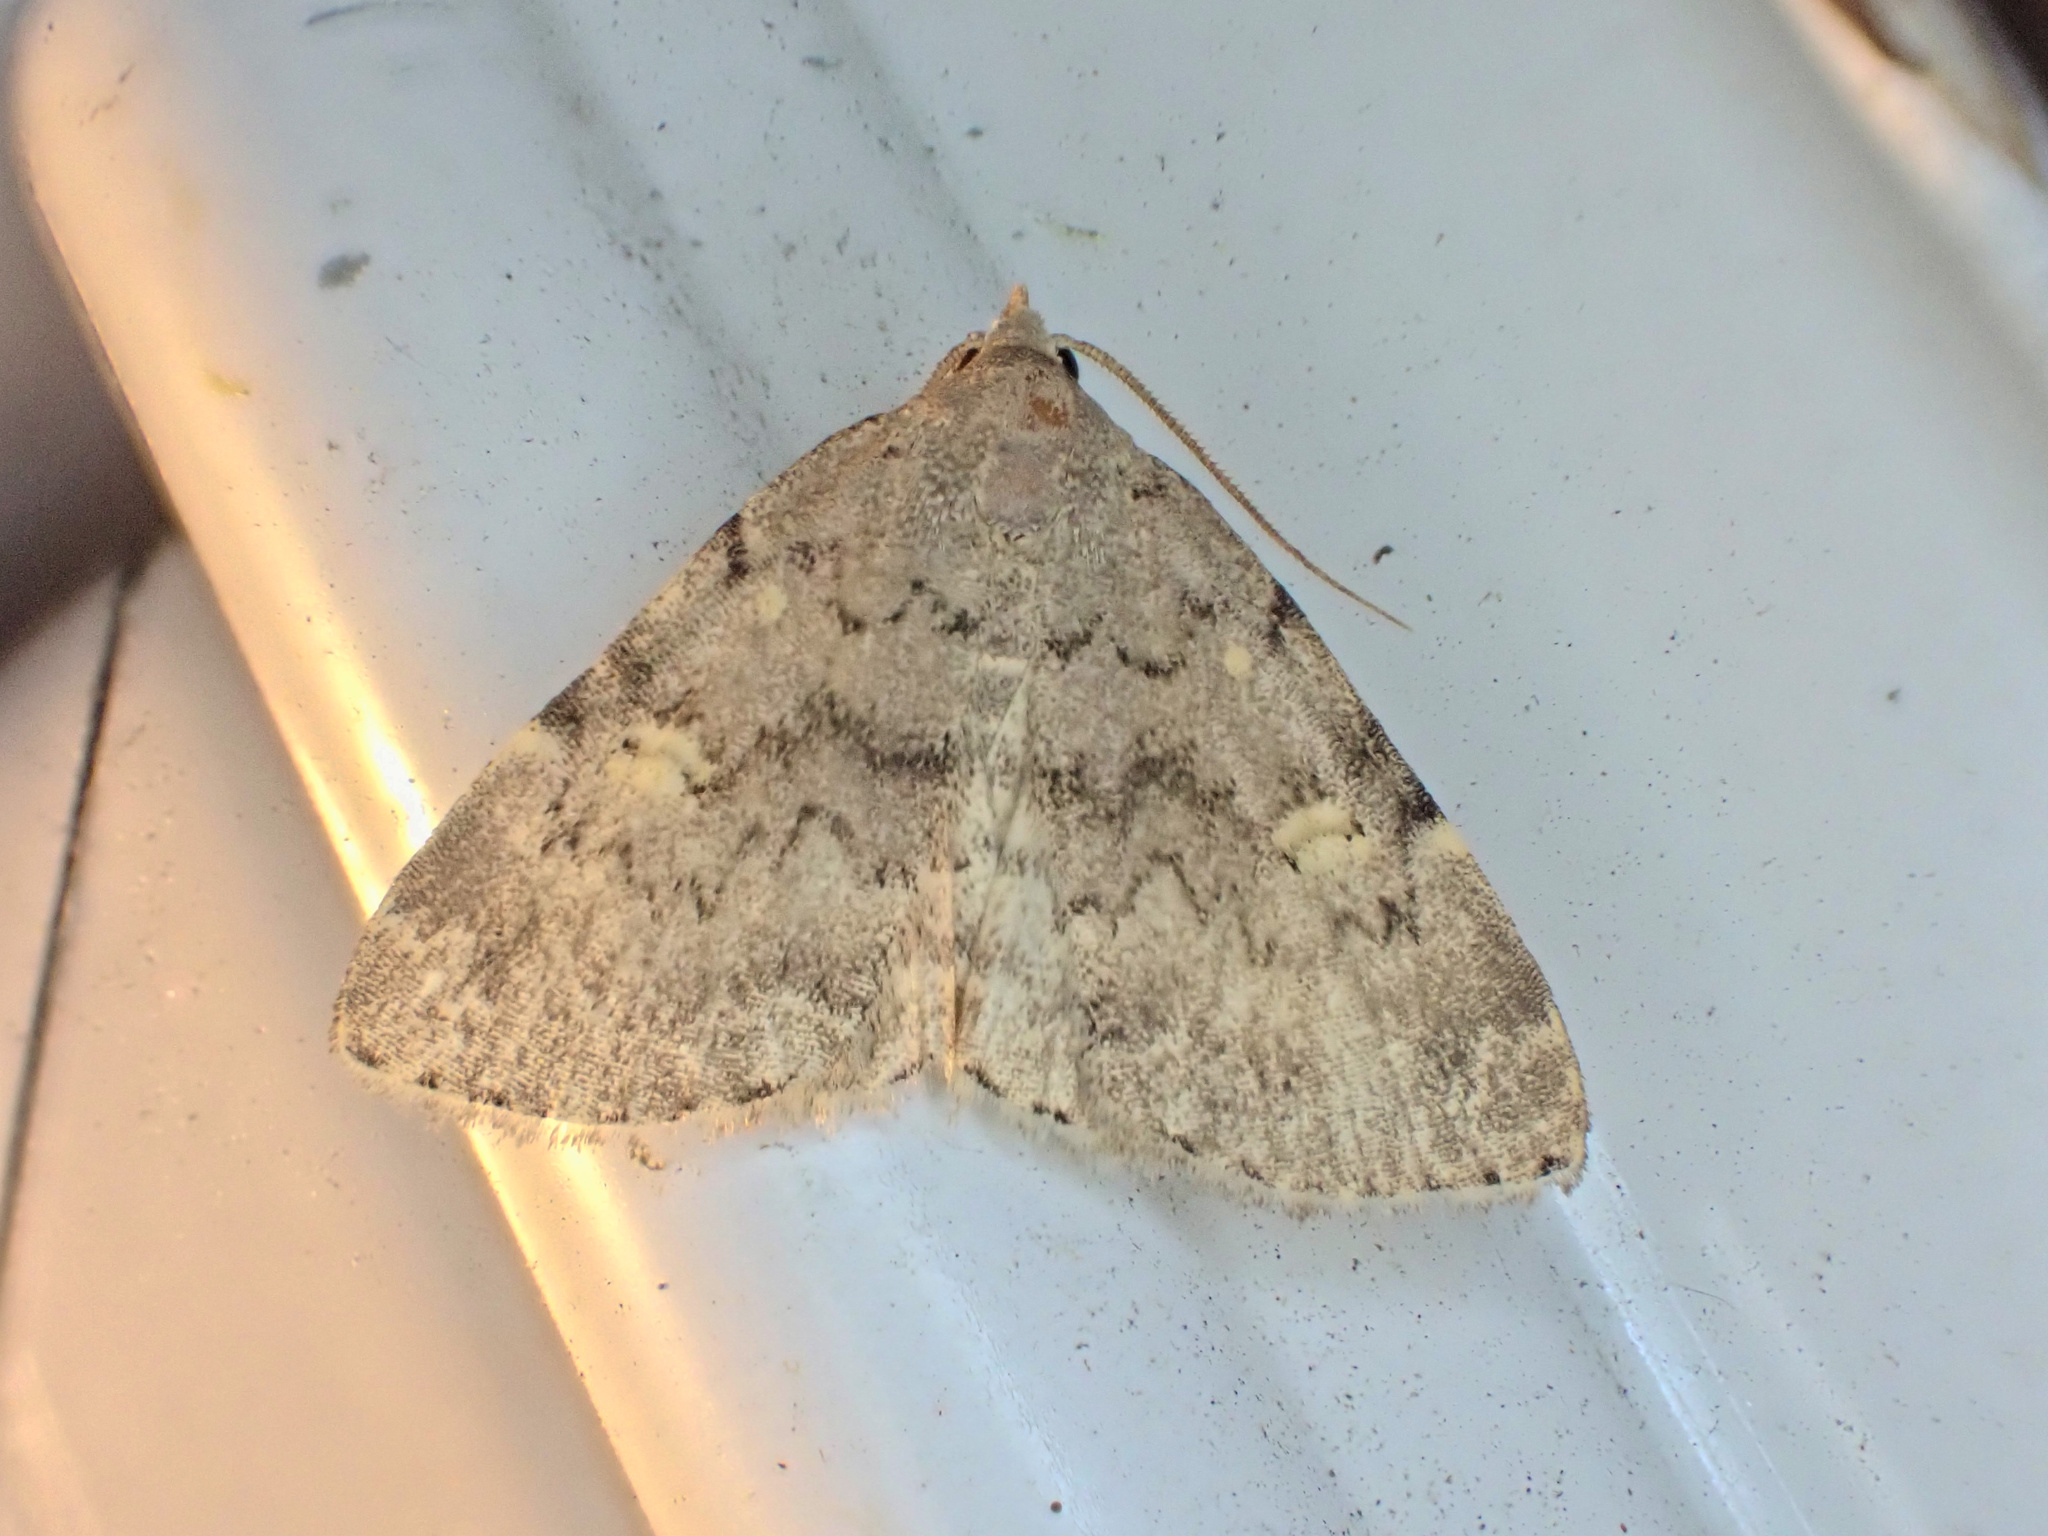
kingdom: Animalia
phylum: Arthropoda
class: Insecta
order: Lepidoptera
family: Erebidae
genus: Idia
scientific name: Idia aemula
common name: Common idia moth
